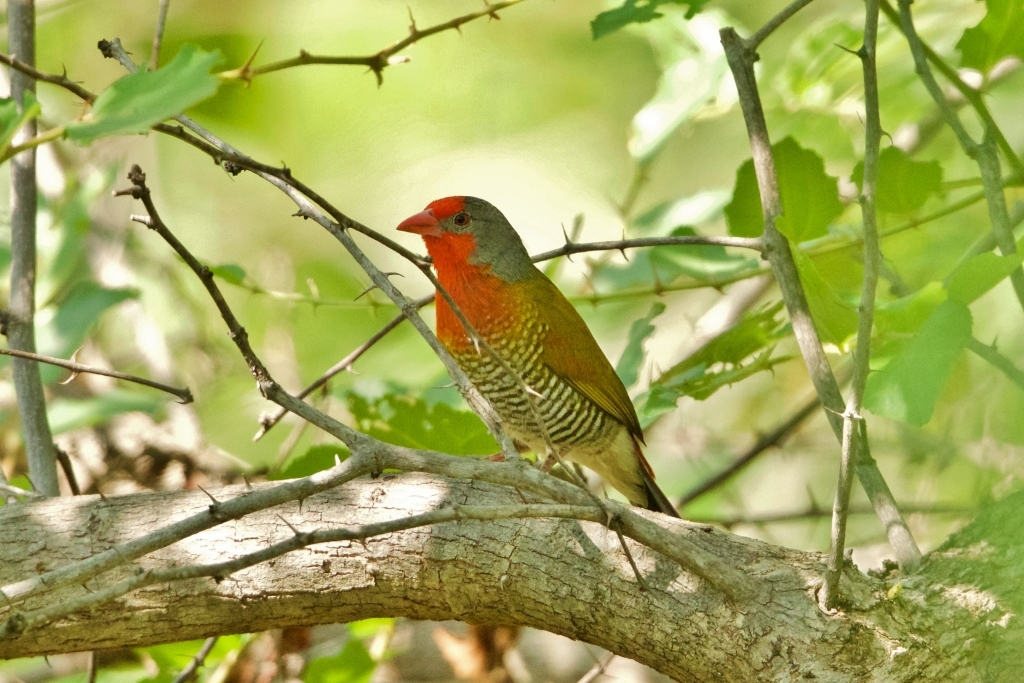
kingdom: Animalia
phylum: Chordata
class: Aves
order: Passeriformes
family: Estrildidae
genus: Pytilia
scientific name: Pytilia melba
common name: Green-winged pytilia
